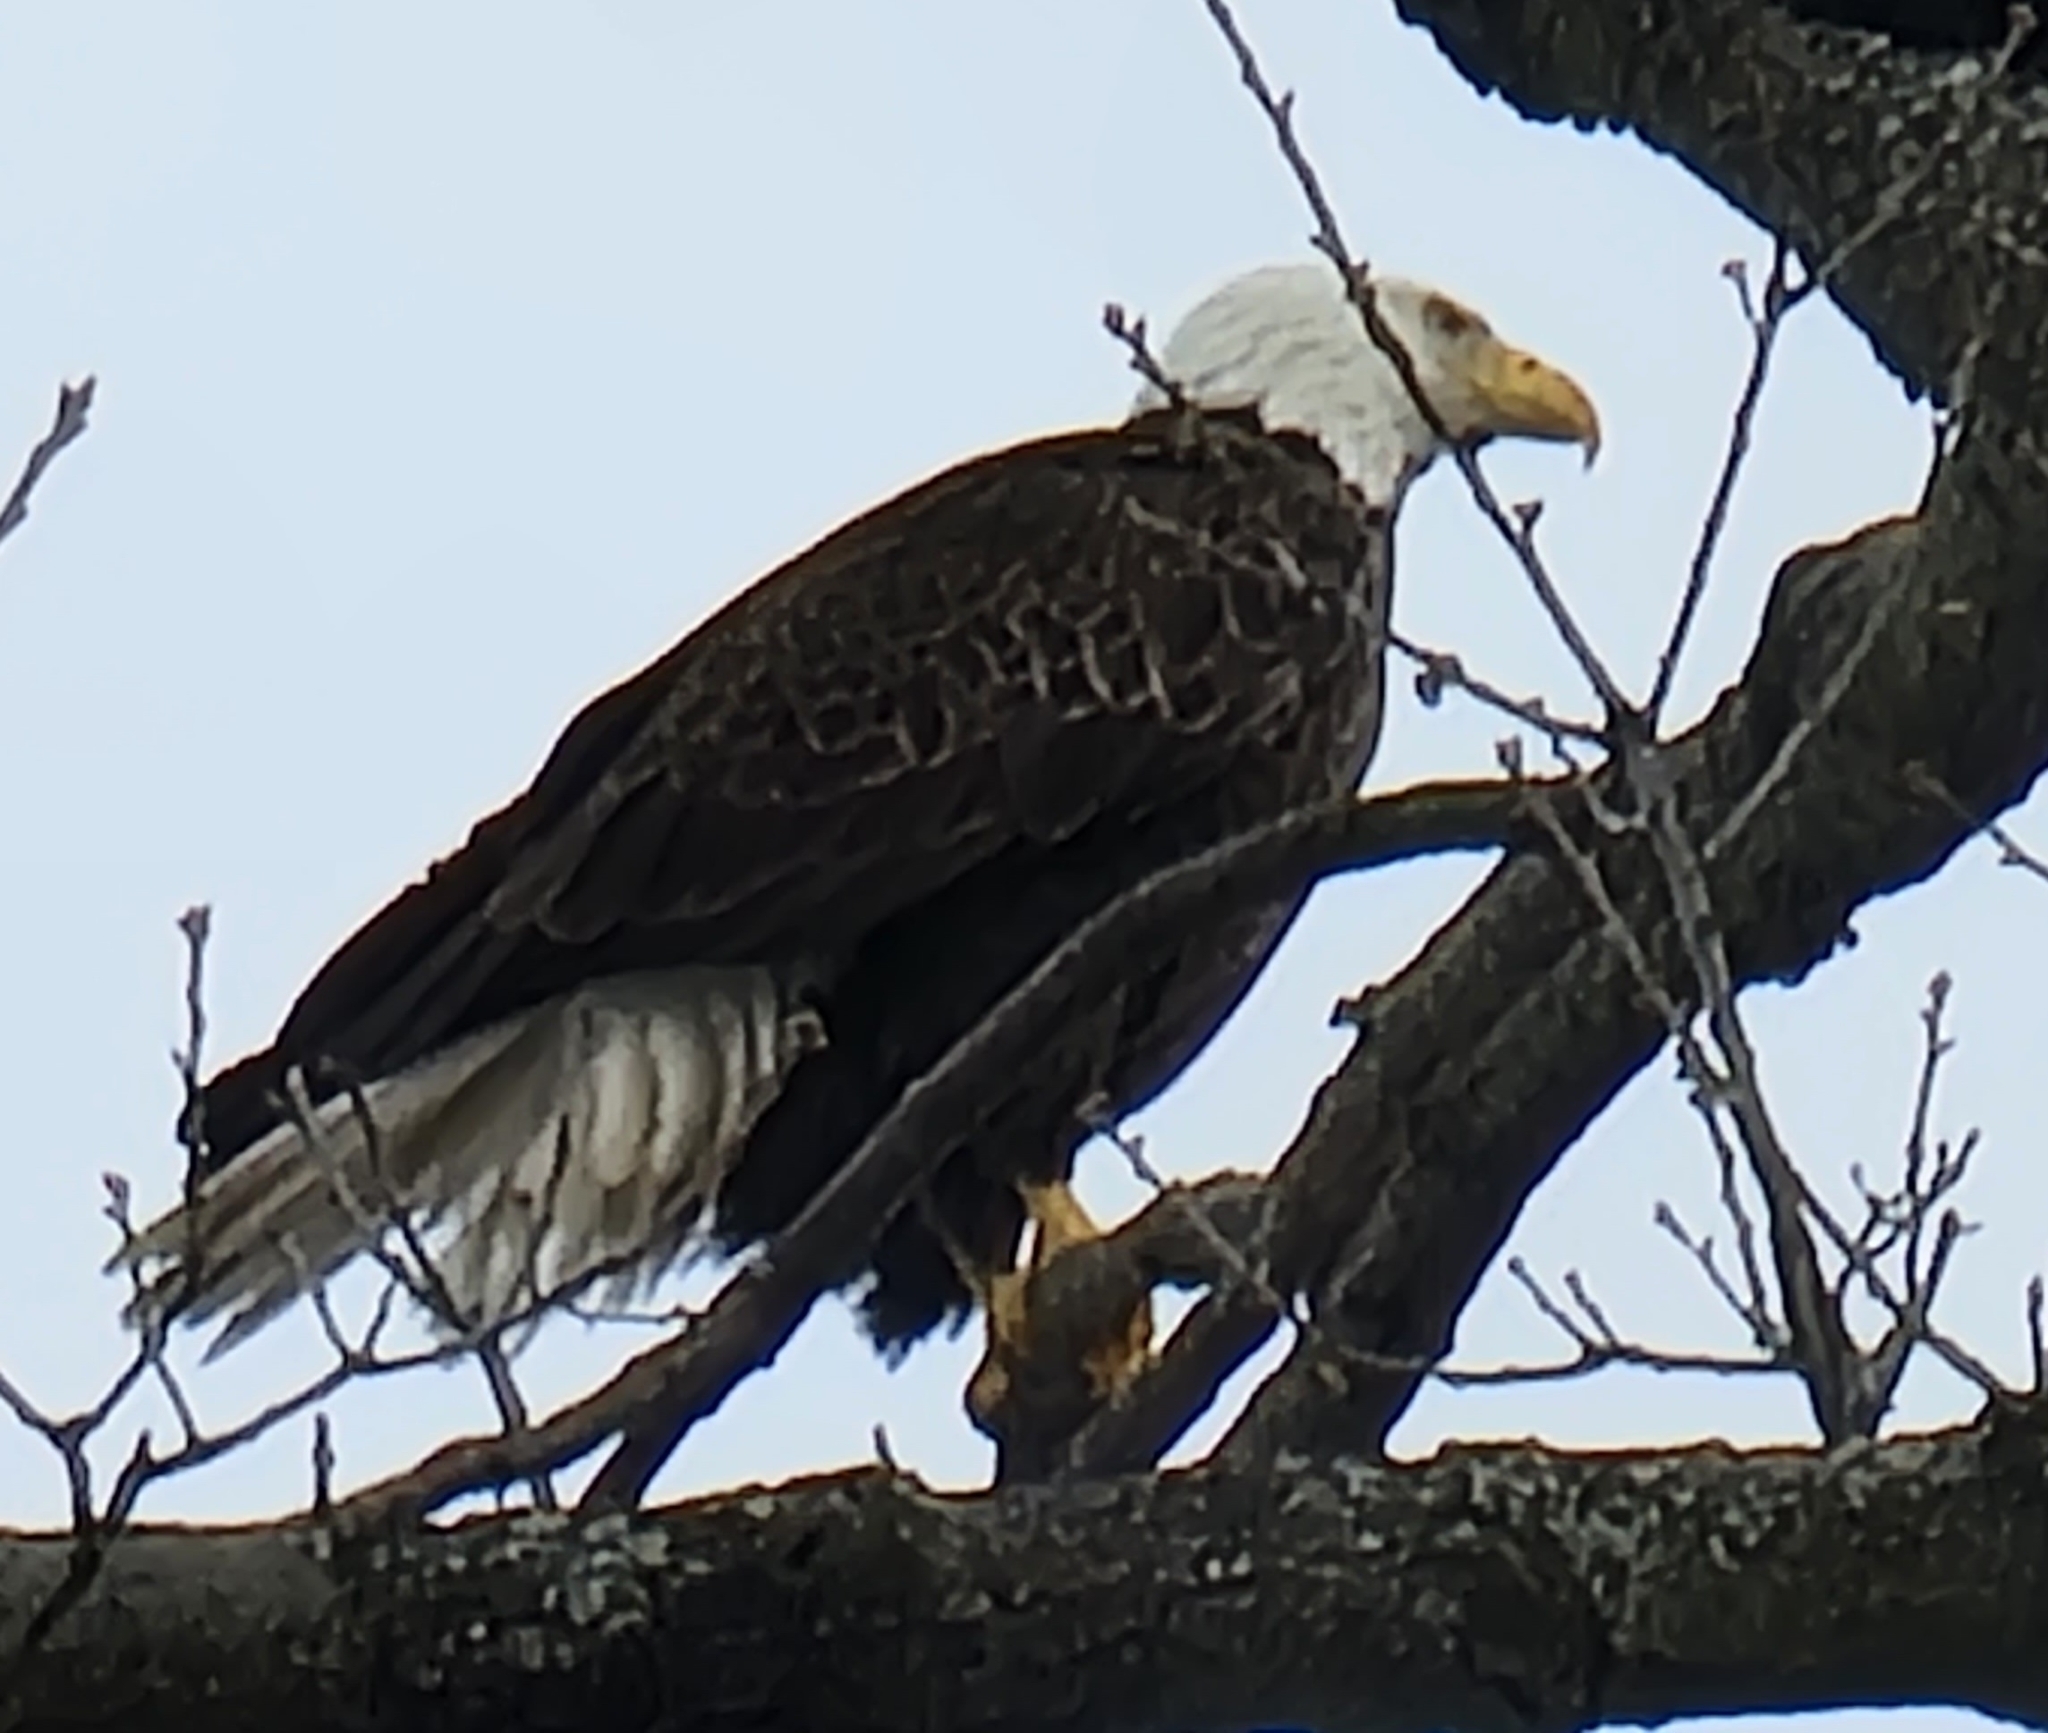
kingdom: Animalia
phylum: Chordata
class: Aves
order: Accipitriformes
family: Accipitridae
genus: Haliaeetus
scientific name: Haliaeetus leucocephalus
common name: Bald eagle
